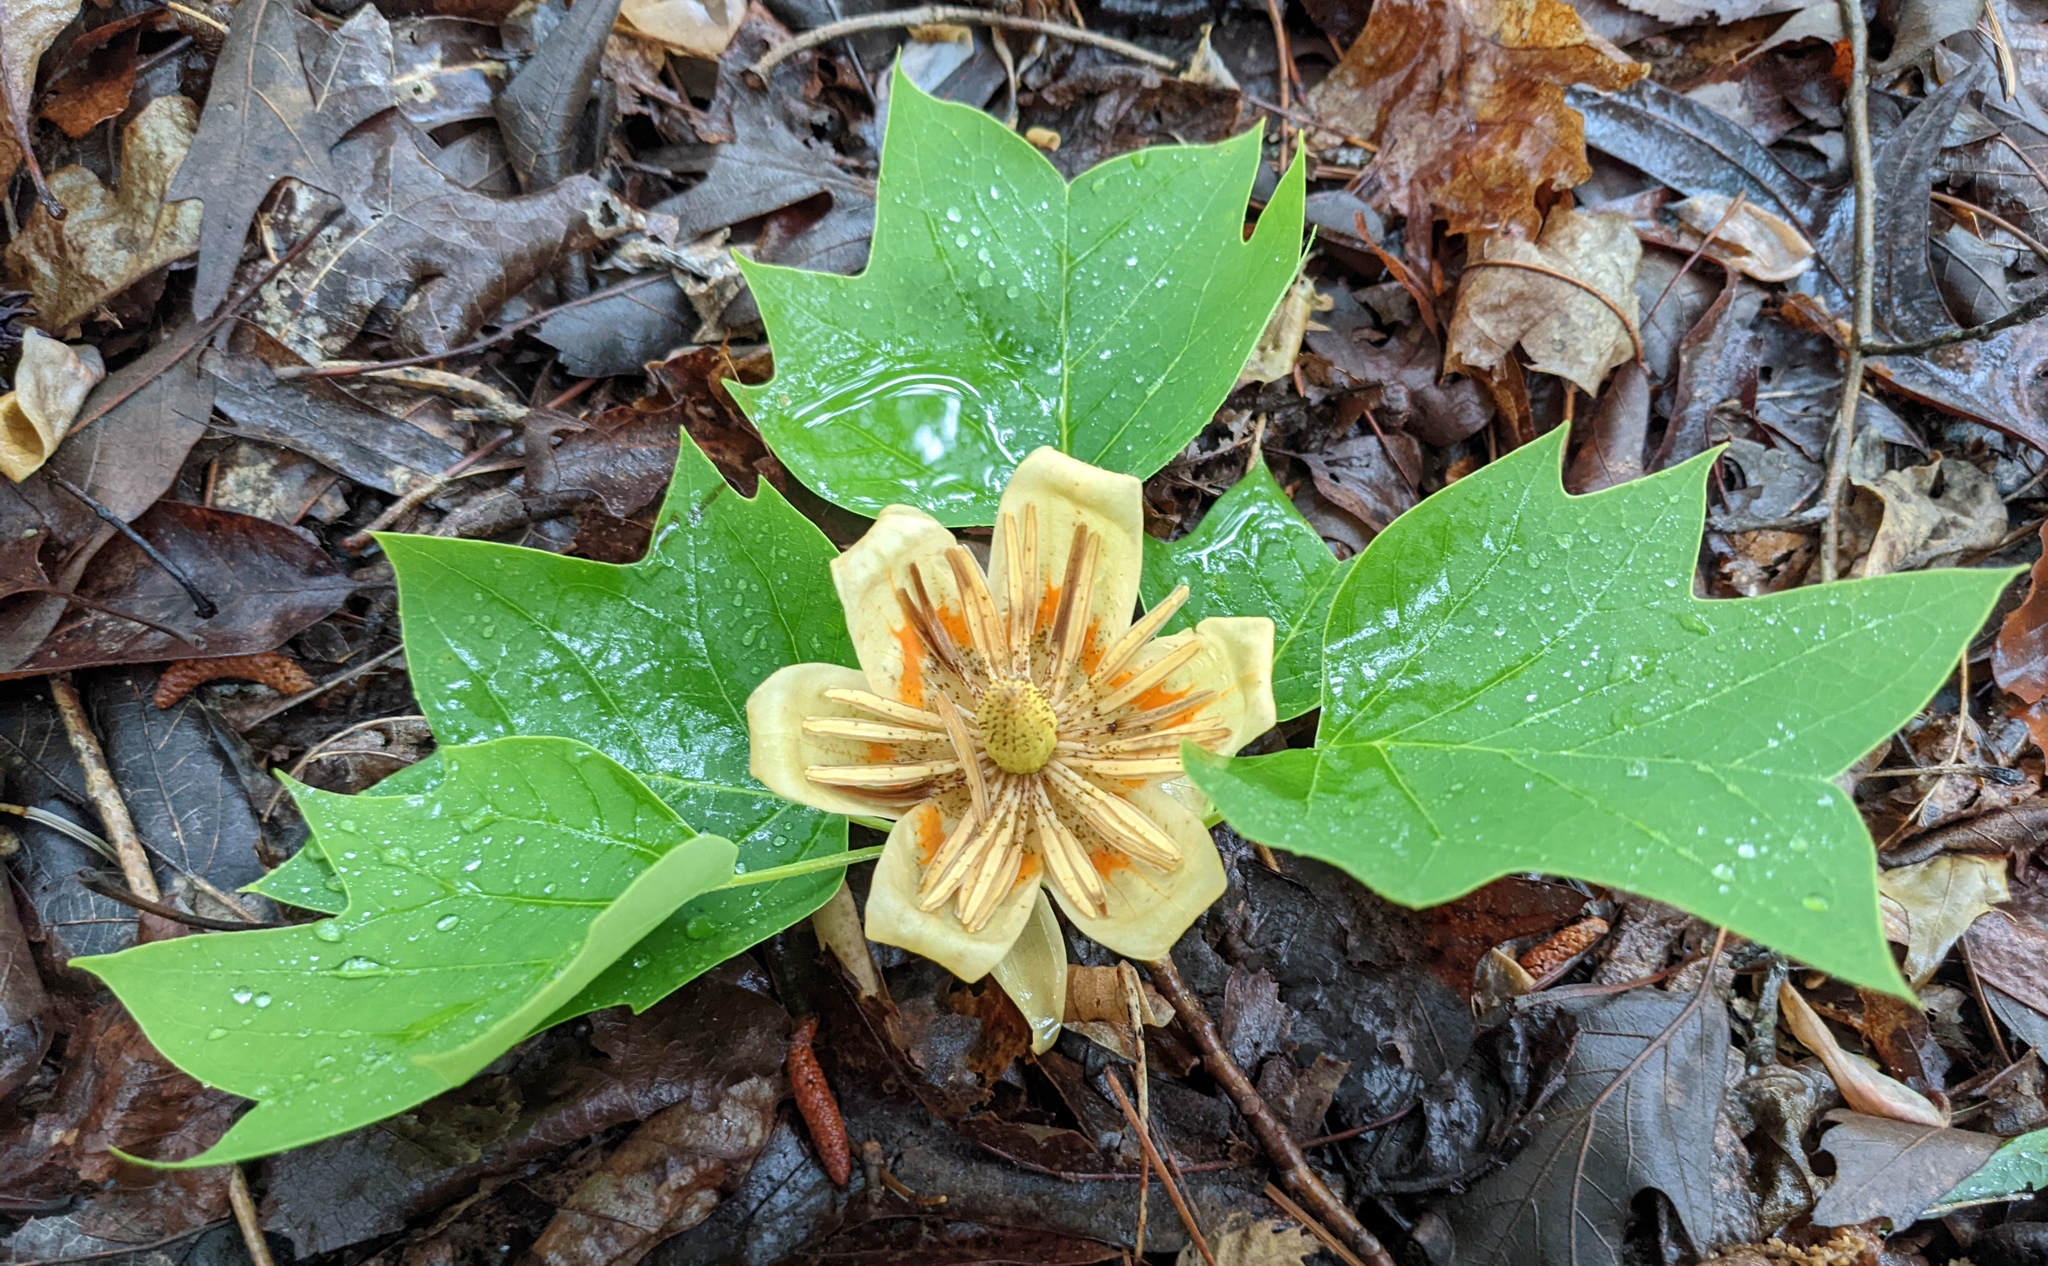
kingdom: Plantae
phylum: Tracheophyta
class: Magnoliopsida
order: Magnoliales
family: Magnoliaceae
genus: Liriodendron
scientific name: Liriodendron tulipifera
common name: Tulip tree
